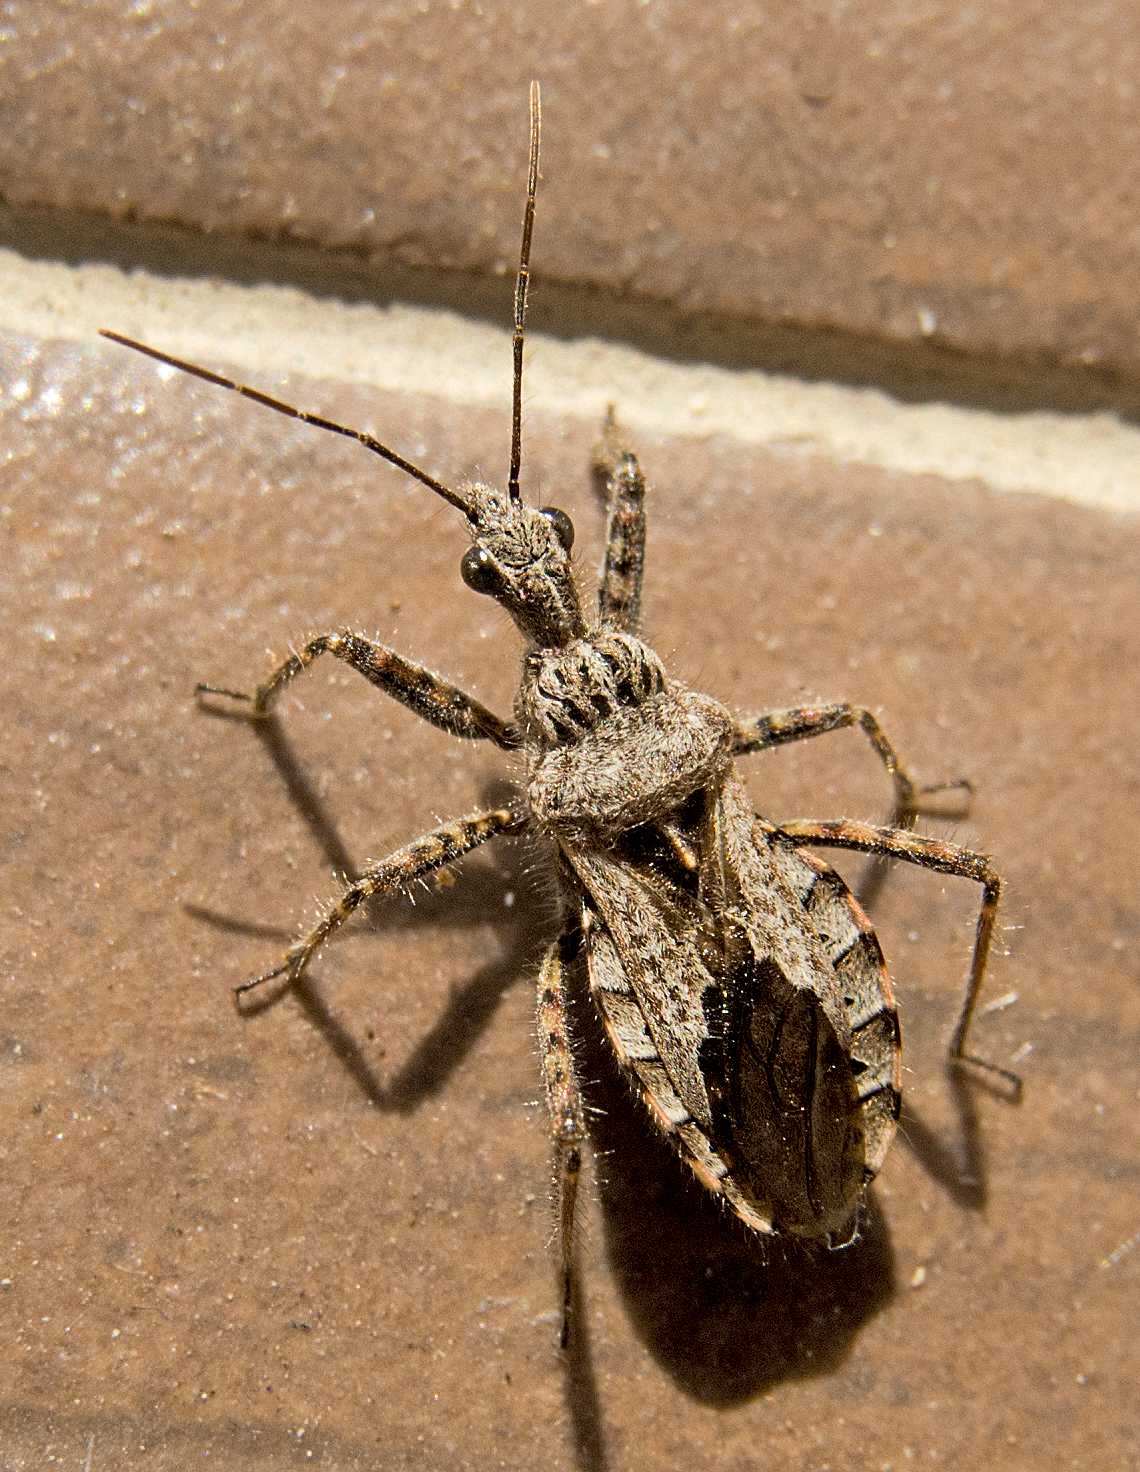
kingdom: Animalia
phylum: Arthropoda
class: Insecta
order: Hemiptera
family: Reduviidae
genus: Coranus
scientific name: Coranus kerzhneri
